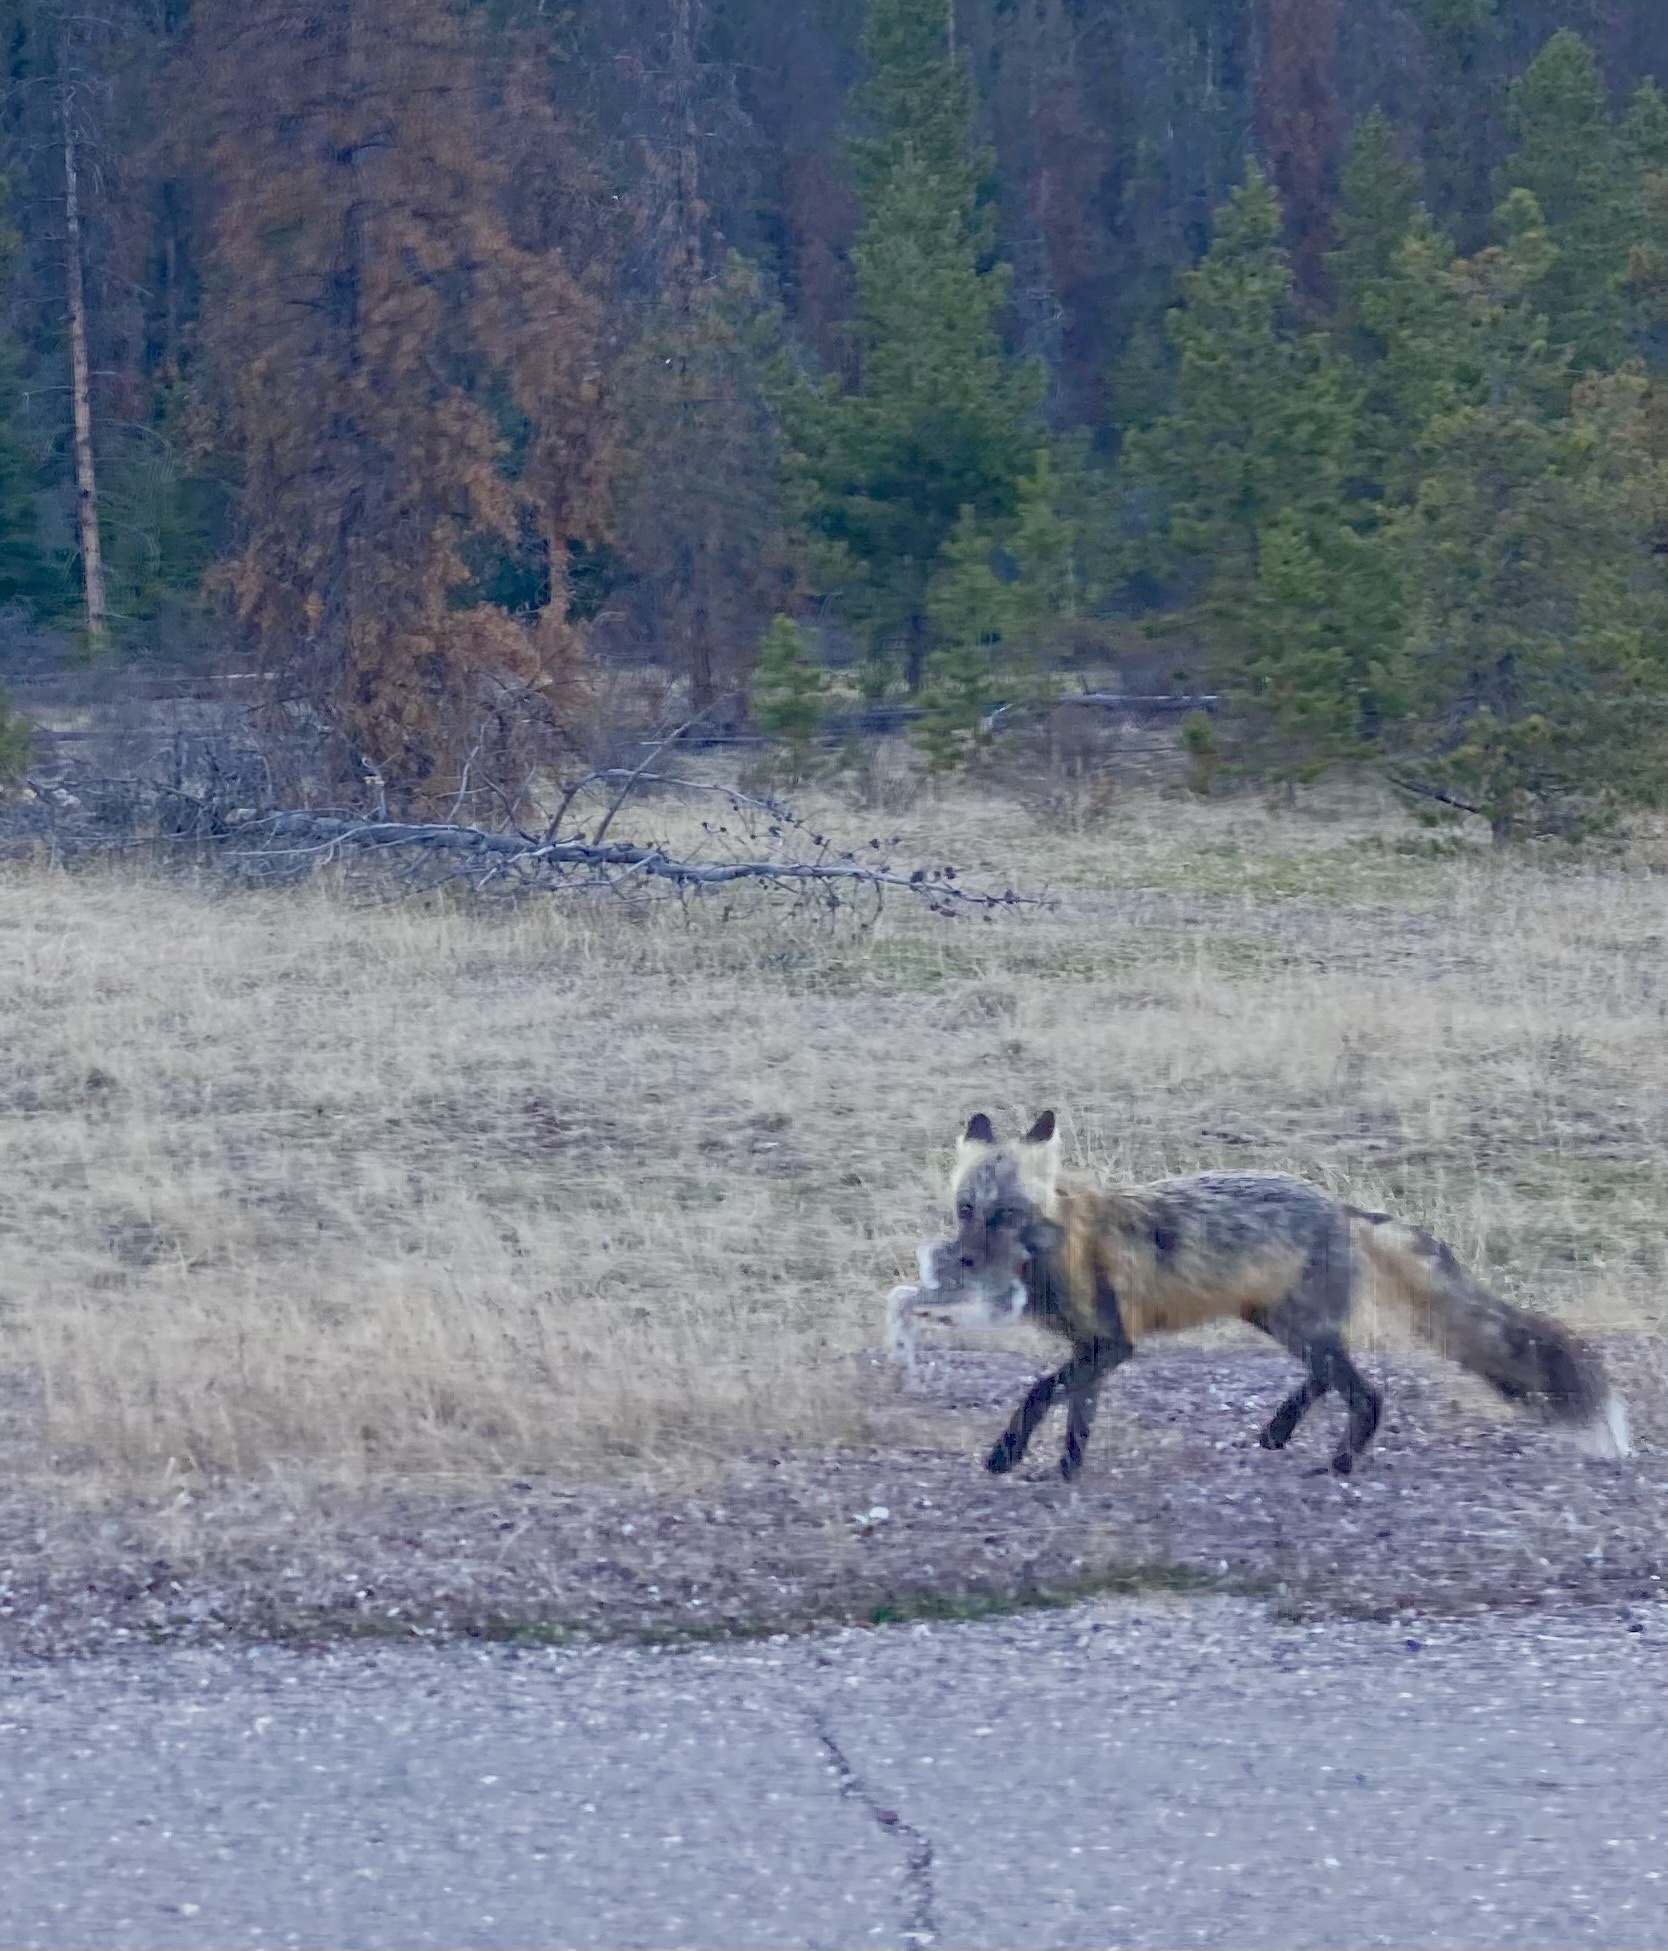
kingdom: Animalia
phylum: Chordata
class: Mammalia
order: Lagomorpha
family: Leporidae
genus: Lepus
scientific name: Lepus americanus
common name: Snowshoe hare
